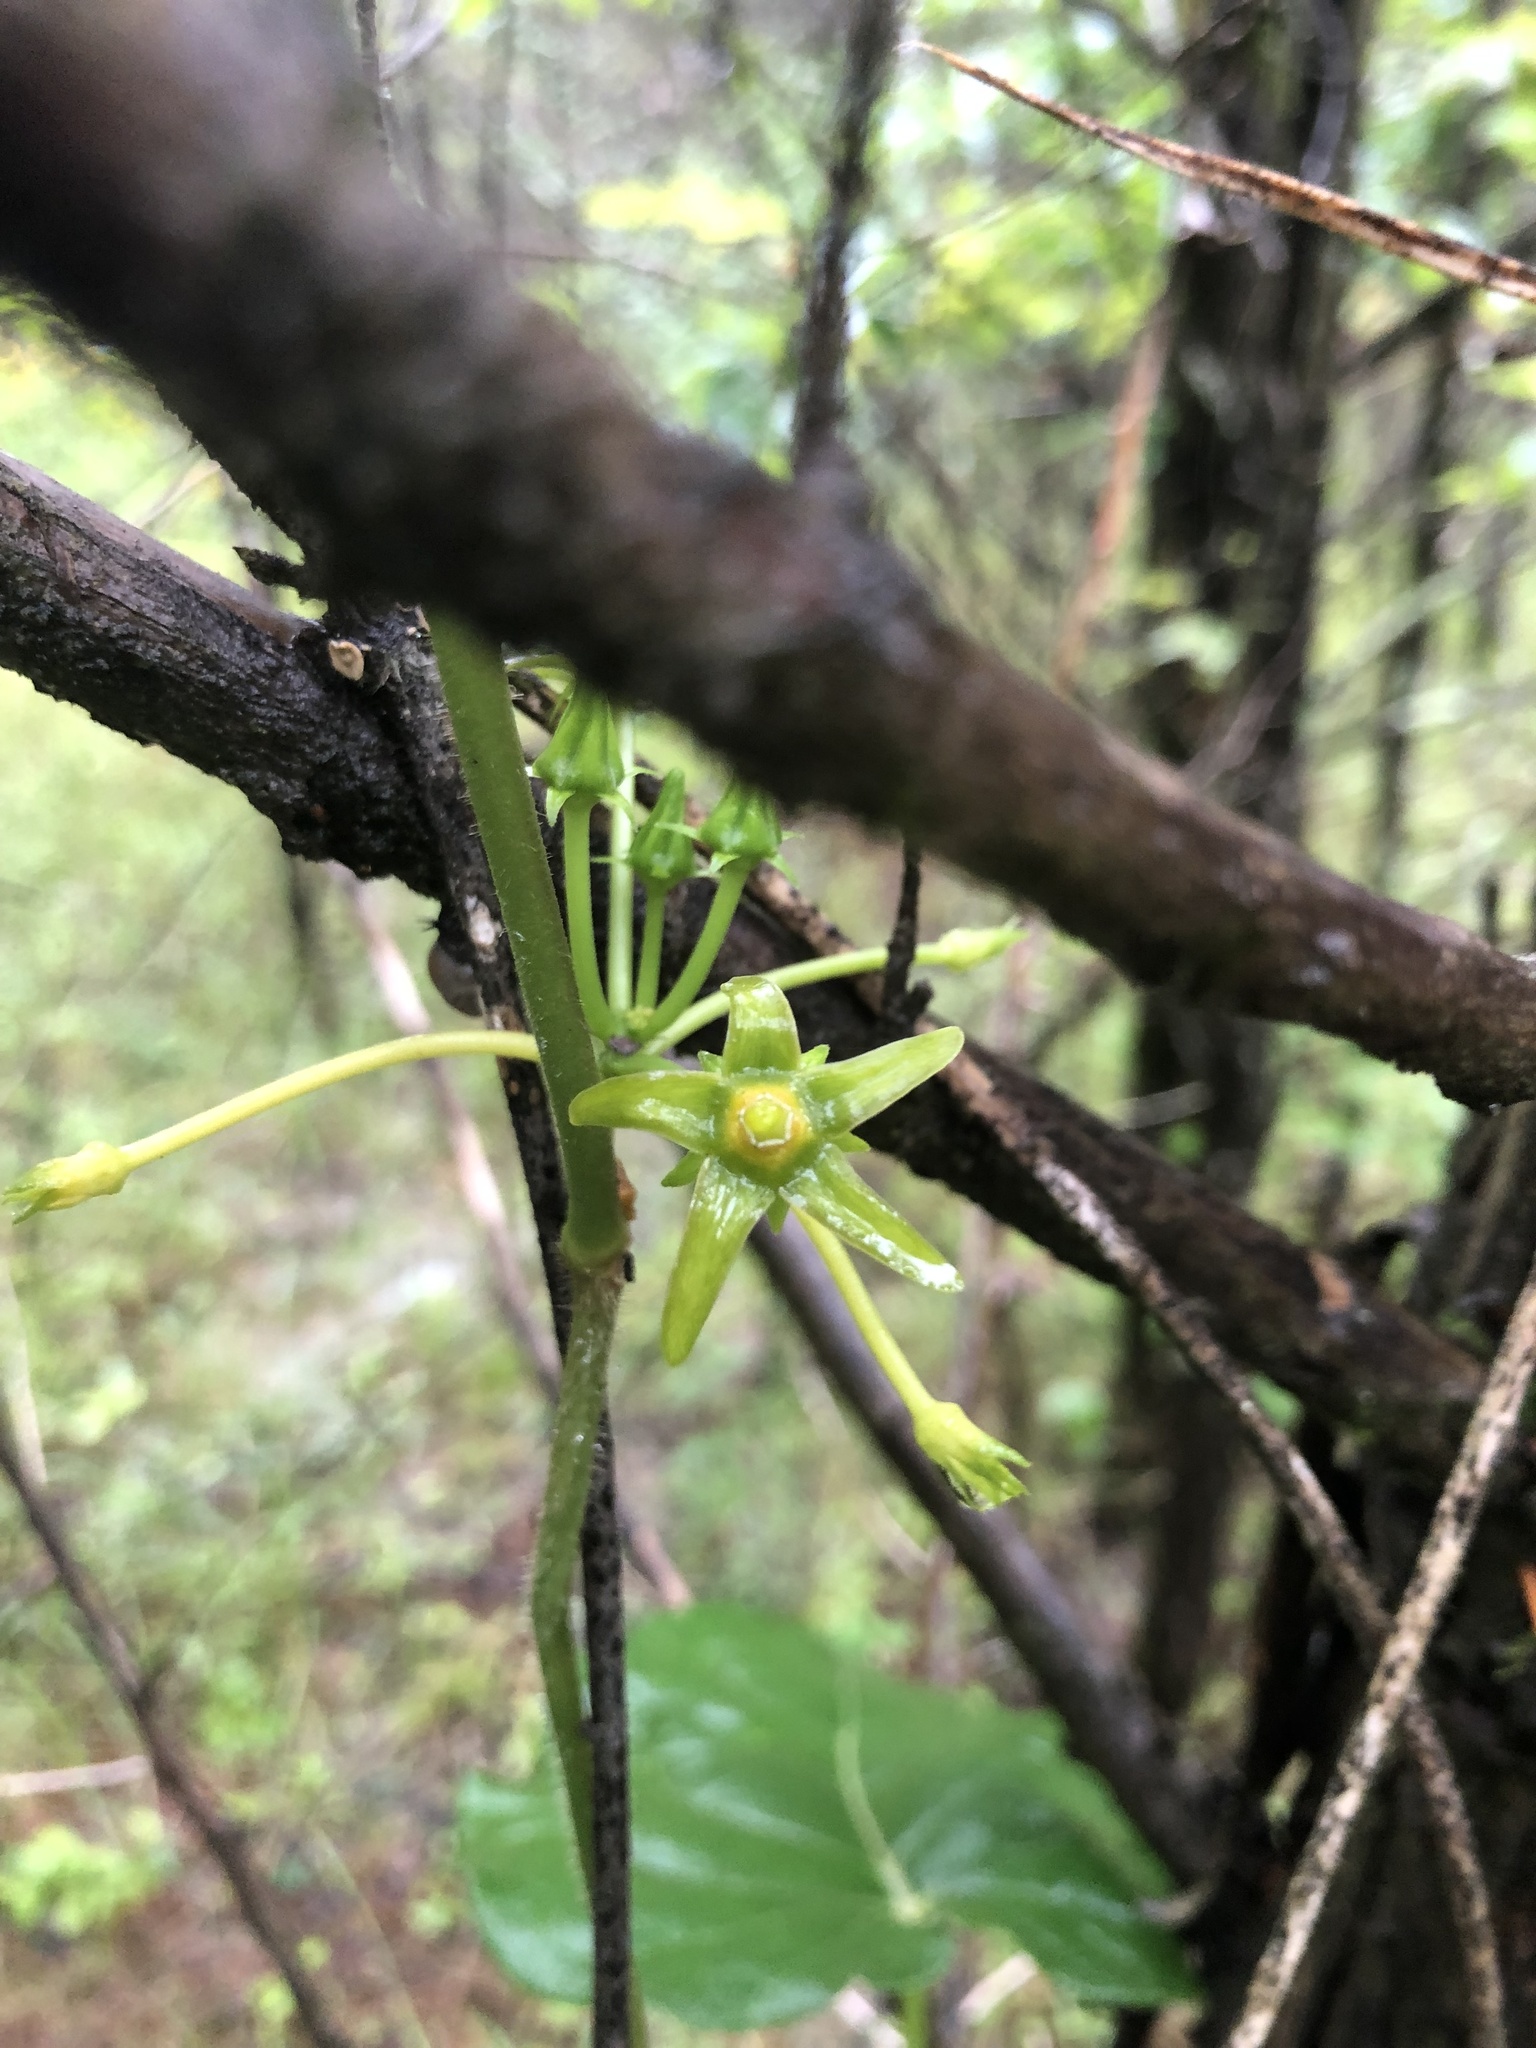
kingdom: Plantae
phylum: Tracheophyta
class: Magnoliopsida
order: Gentianales
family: Apocynaceae
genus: Gonolobus
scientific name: Gonolobus suberosus
